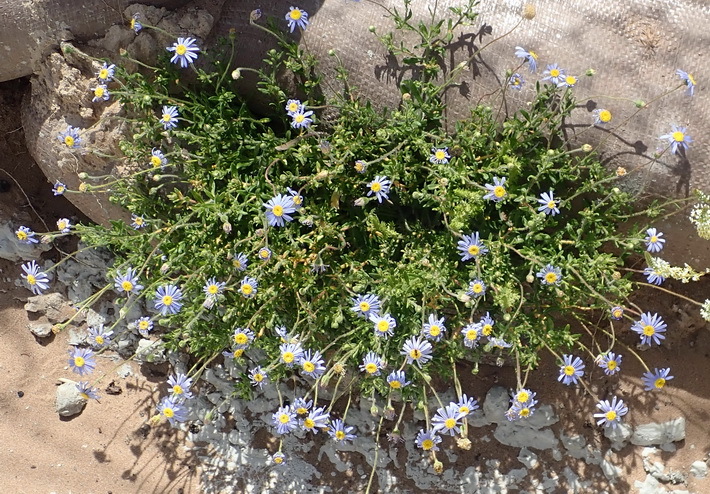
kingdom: Plantae
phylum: Tracheophyta
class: Magnoliopsida
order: Asterales
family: Asteraceae
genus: Felicia
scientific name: Felicia amoena
